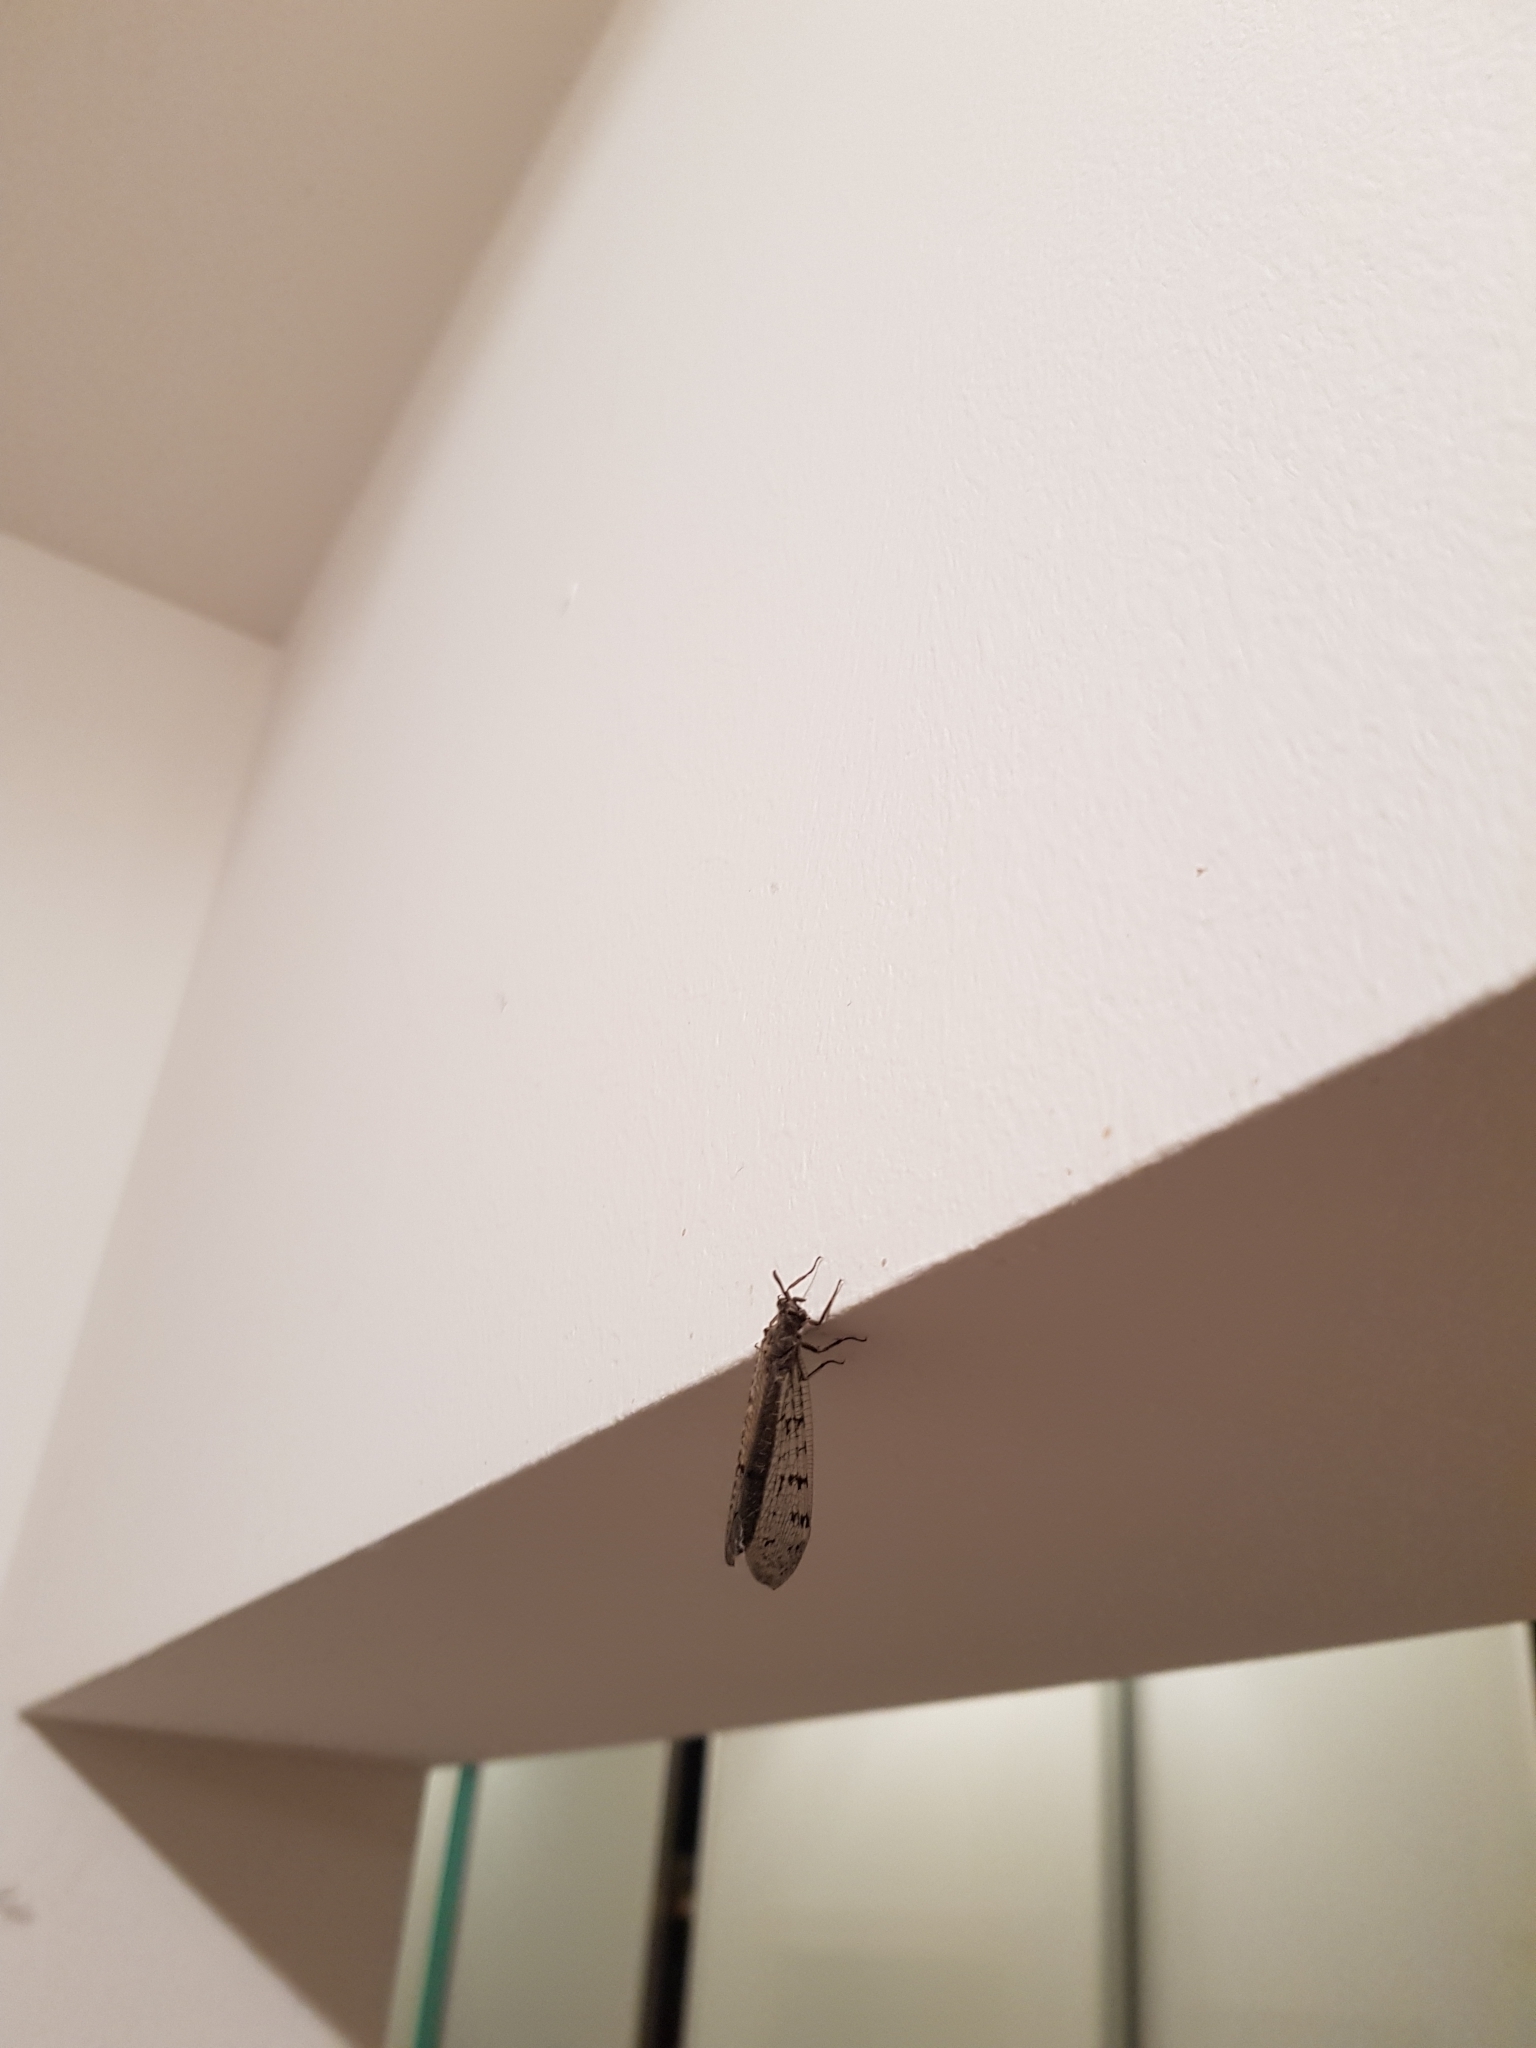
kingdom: Animalia
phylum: Arthropoda
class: Insecta
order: Neuroptera
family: Myrmeleontidae
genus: Euroleon
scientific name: Euroleon nostras
